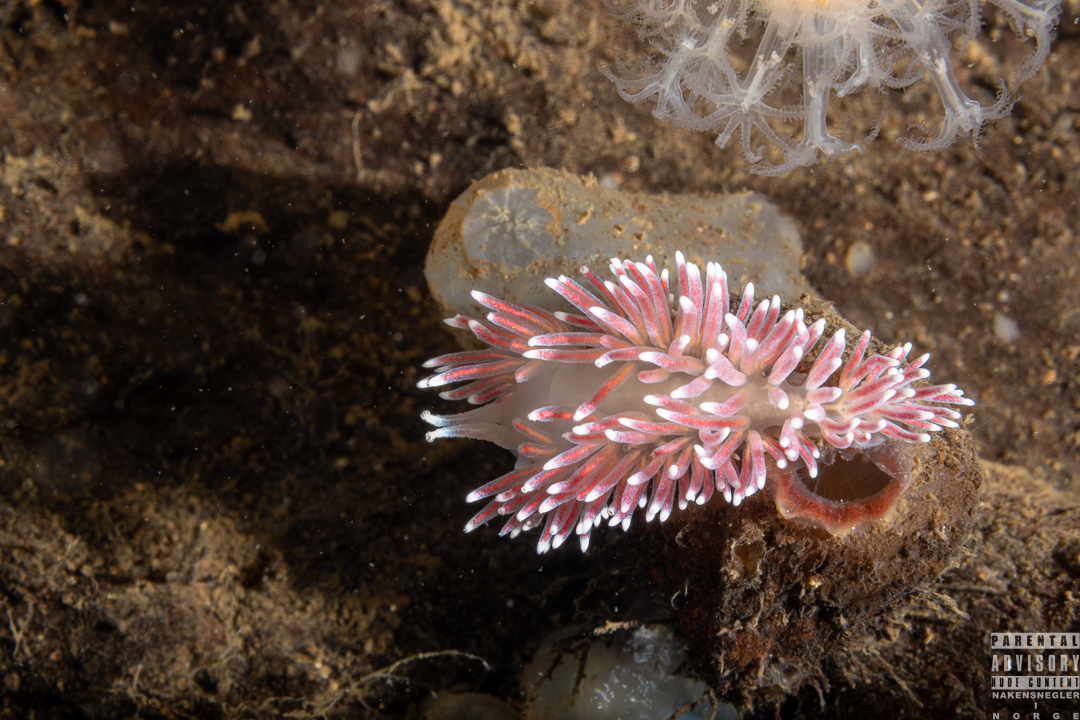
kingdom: Animalia
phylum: Mollusca
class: Gastropoda
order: Nudibranchia
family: Flabellinidae
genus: Carronella
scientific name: Carronella pellucida
